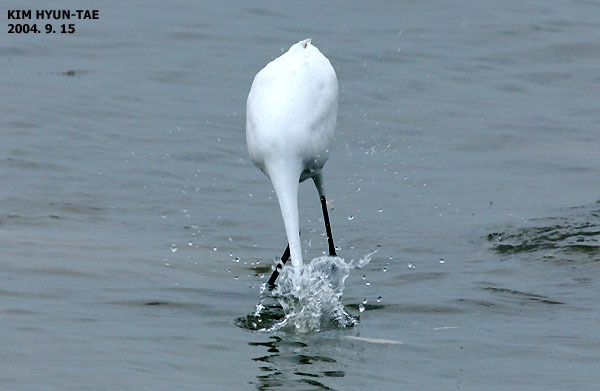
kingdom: Animalia
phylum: Chordata
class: Aves
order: Pelecaniformes
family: Ardeidae
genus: Ardea
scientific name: Ardea alba
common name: Great egret
